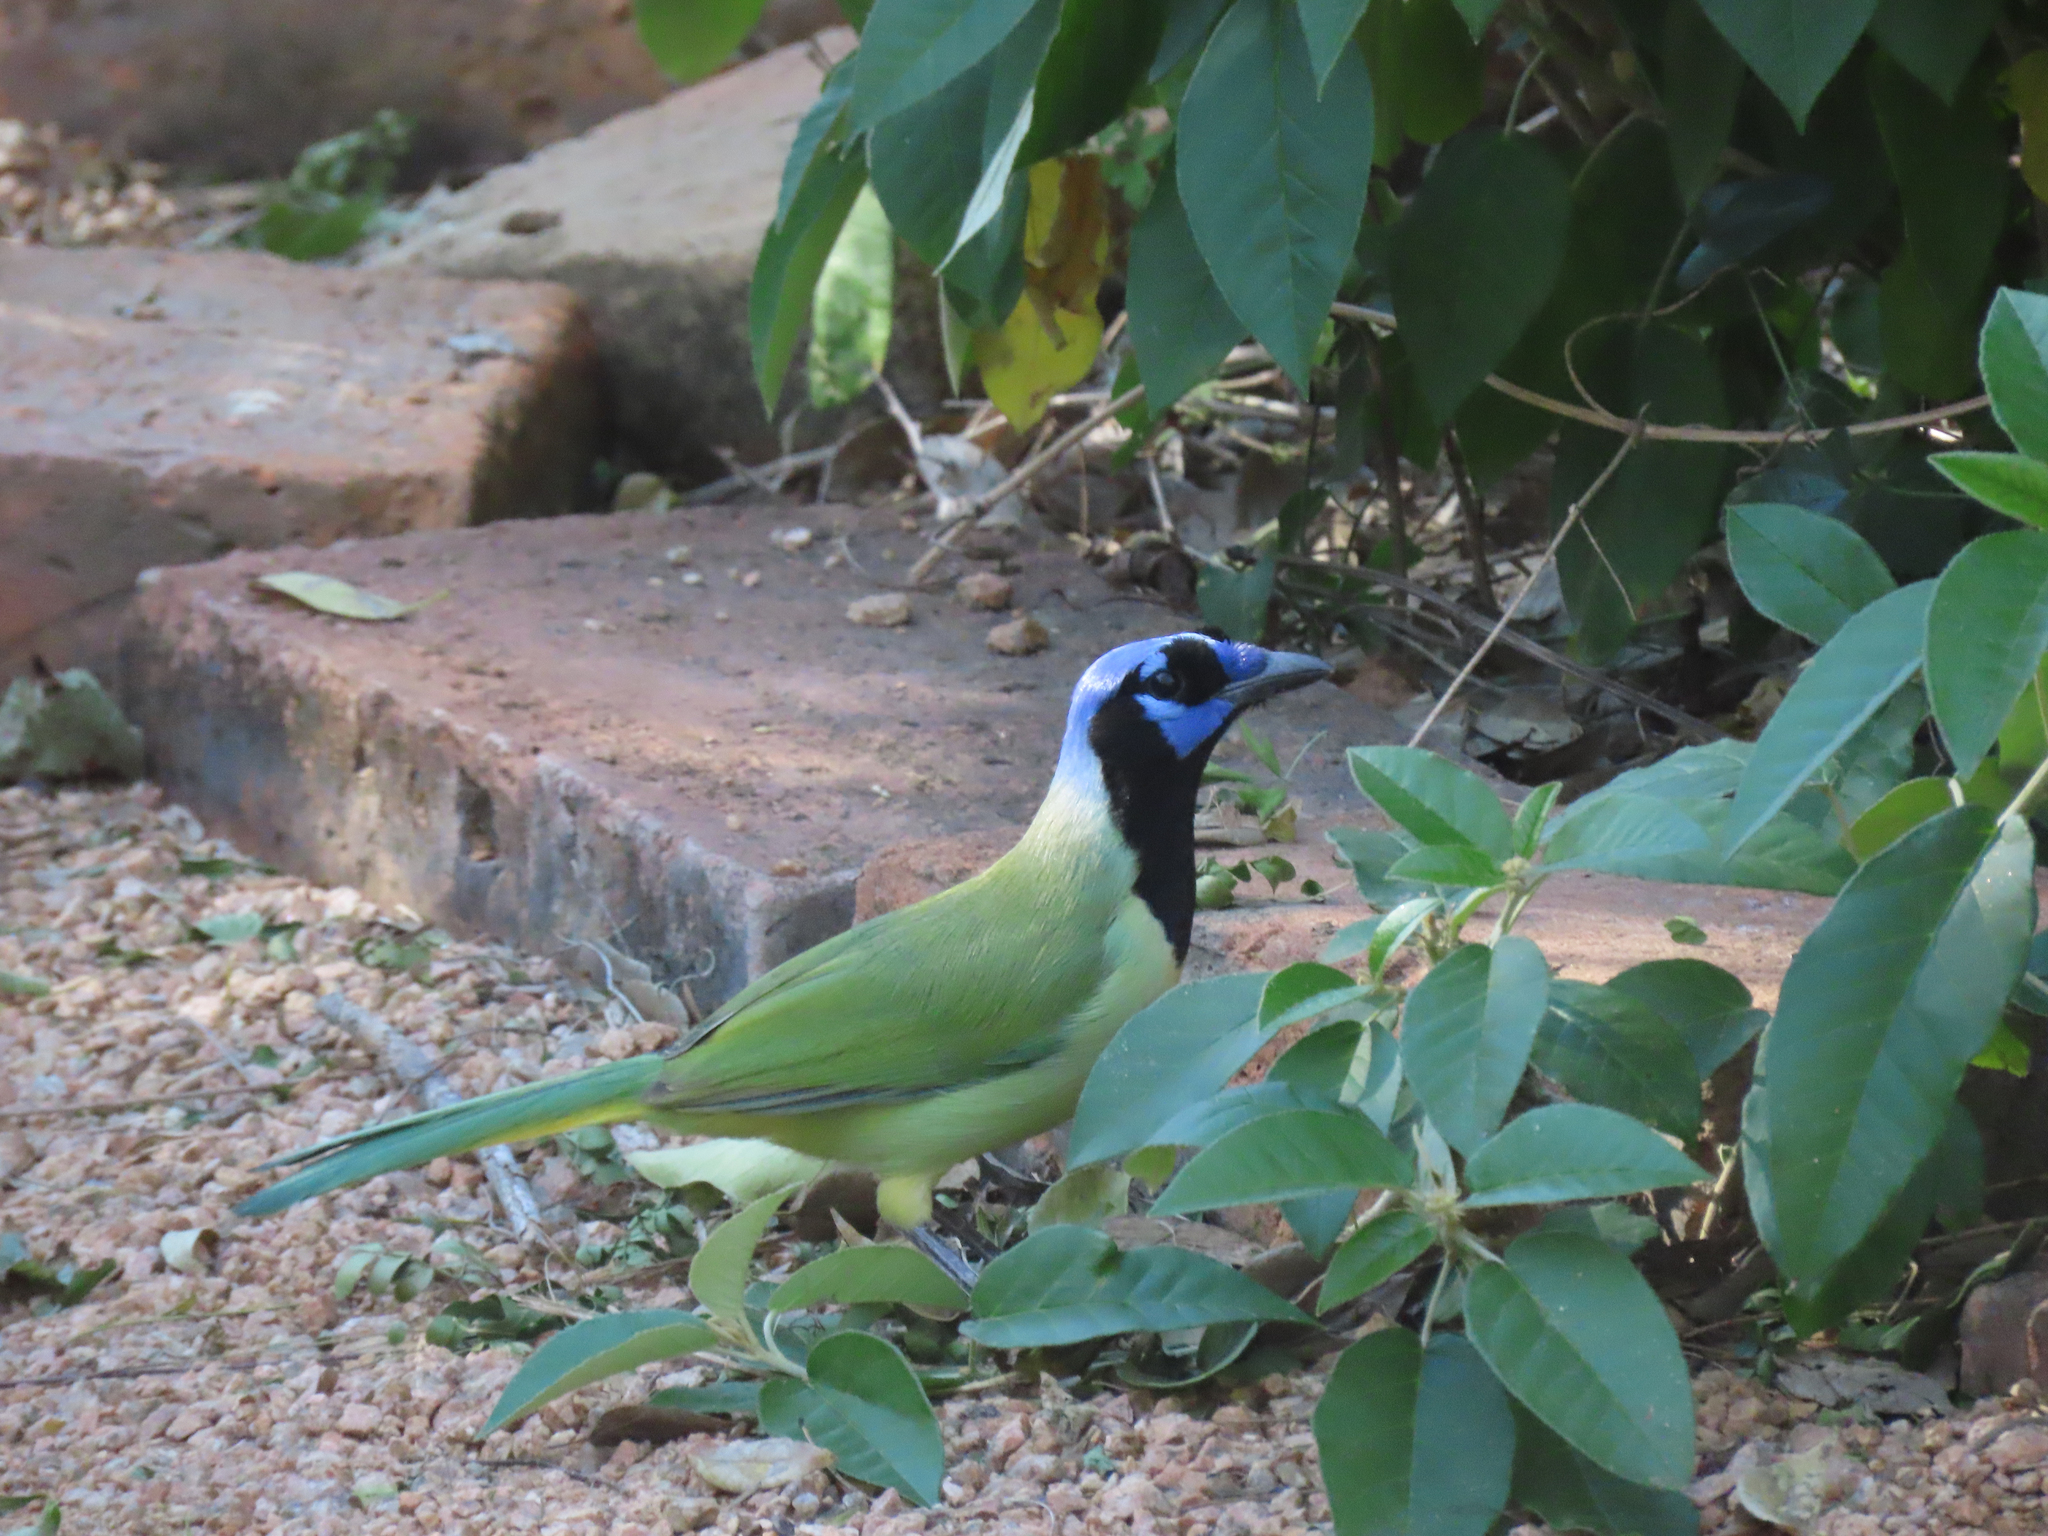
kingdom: Animalia
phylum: Chordata
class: Aves
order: Passeriformes
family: Corvidae
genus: Cyanocorax
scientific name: Cyanocorax yncas
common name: Green jay
